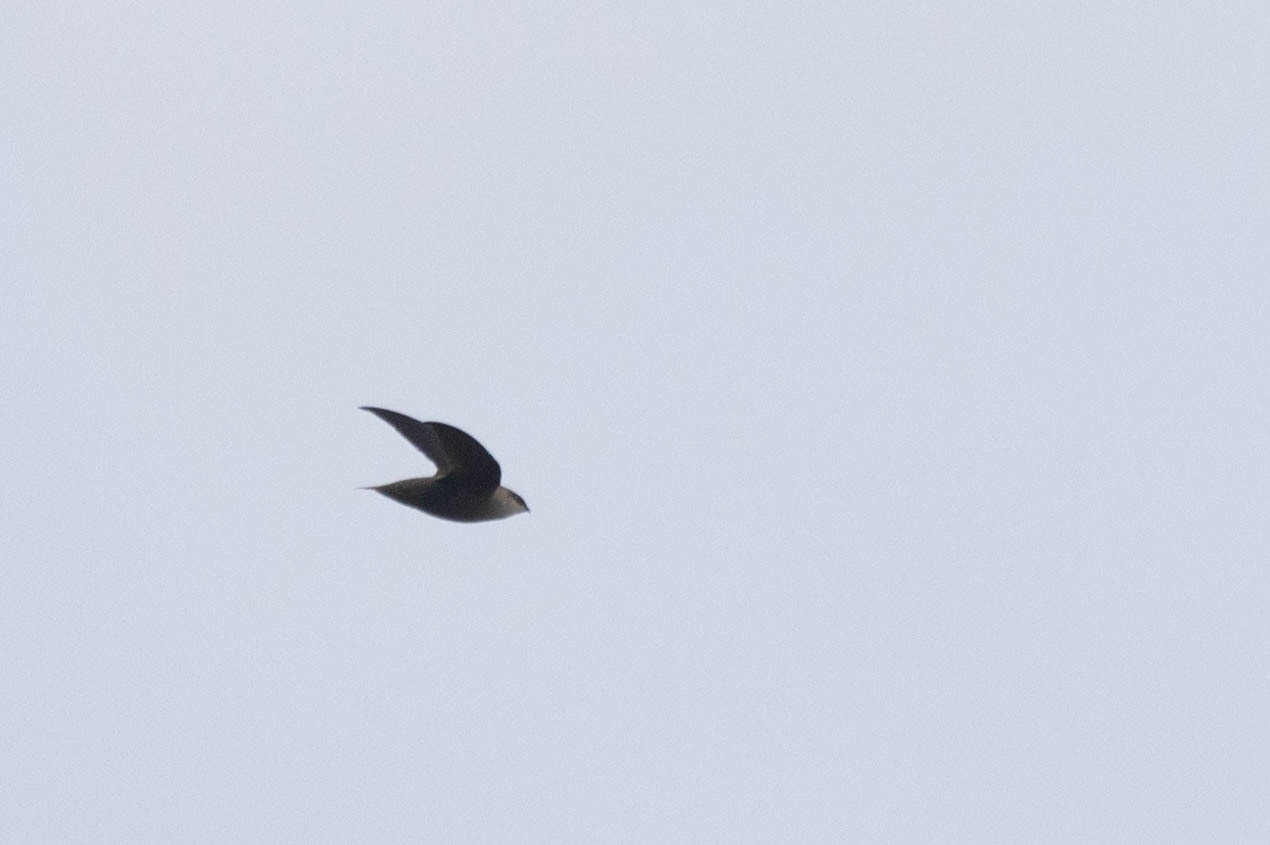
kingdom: Animalia
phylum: Chordata
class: Aves
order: Apodiformes
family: Apodidae
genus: Chaetura
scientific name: Chaetura pelagica
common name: Chimney swift
